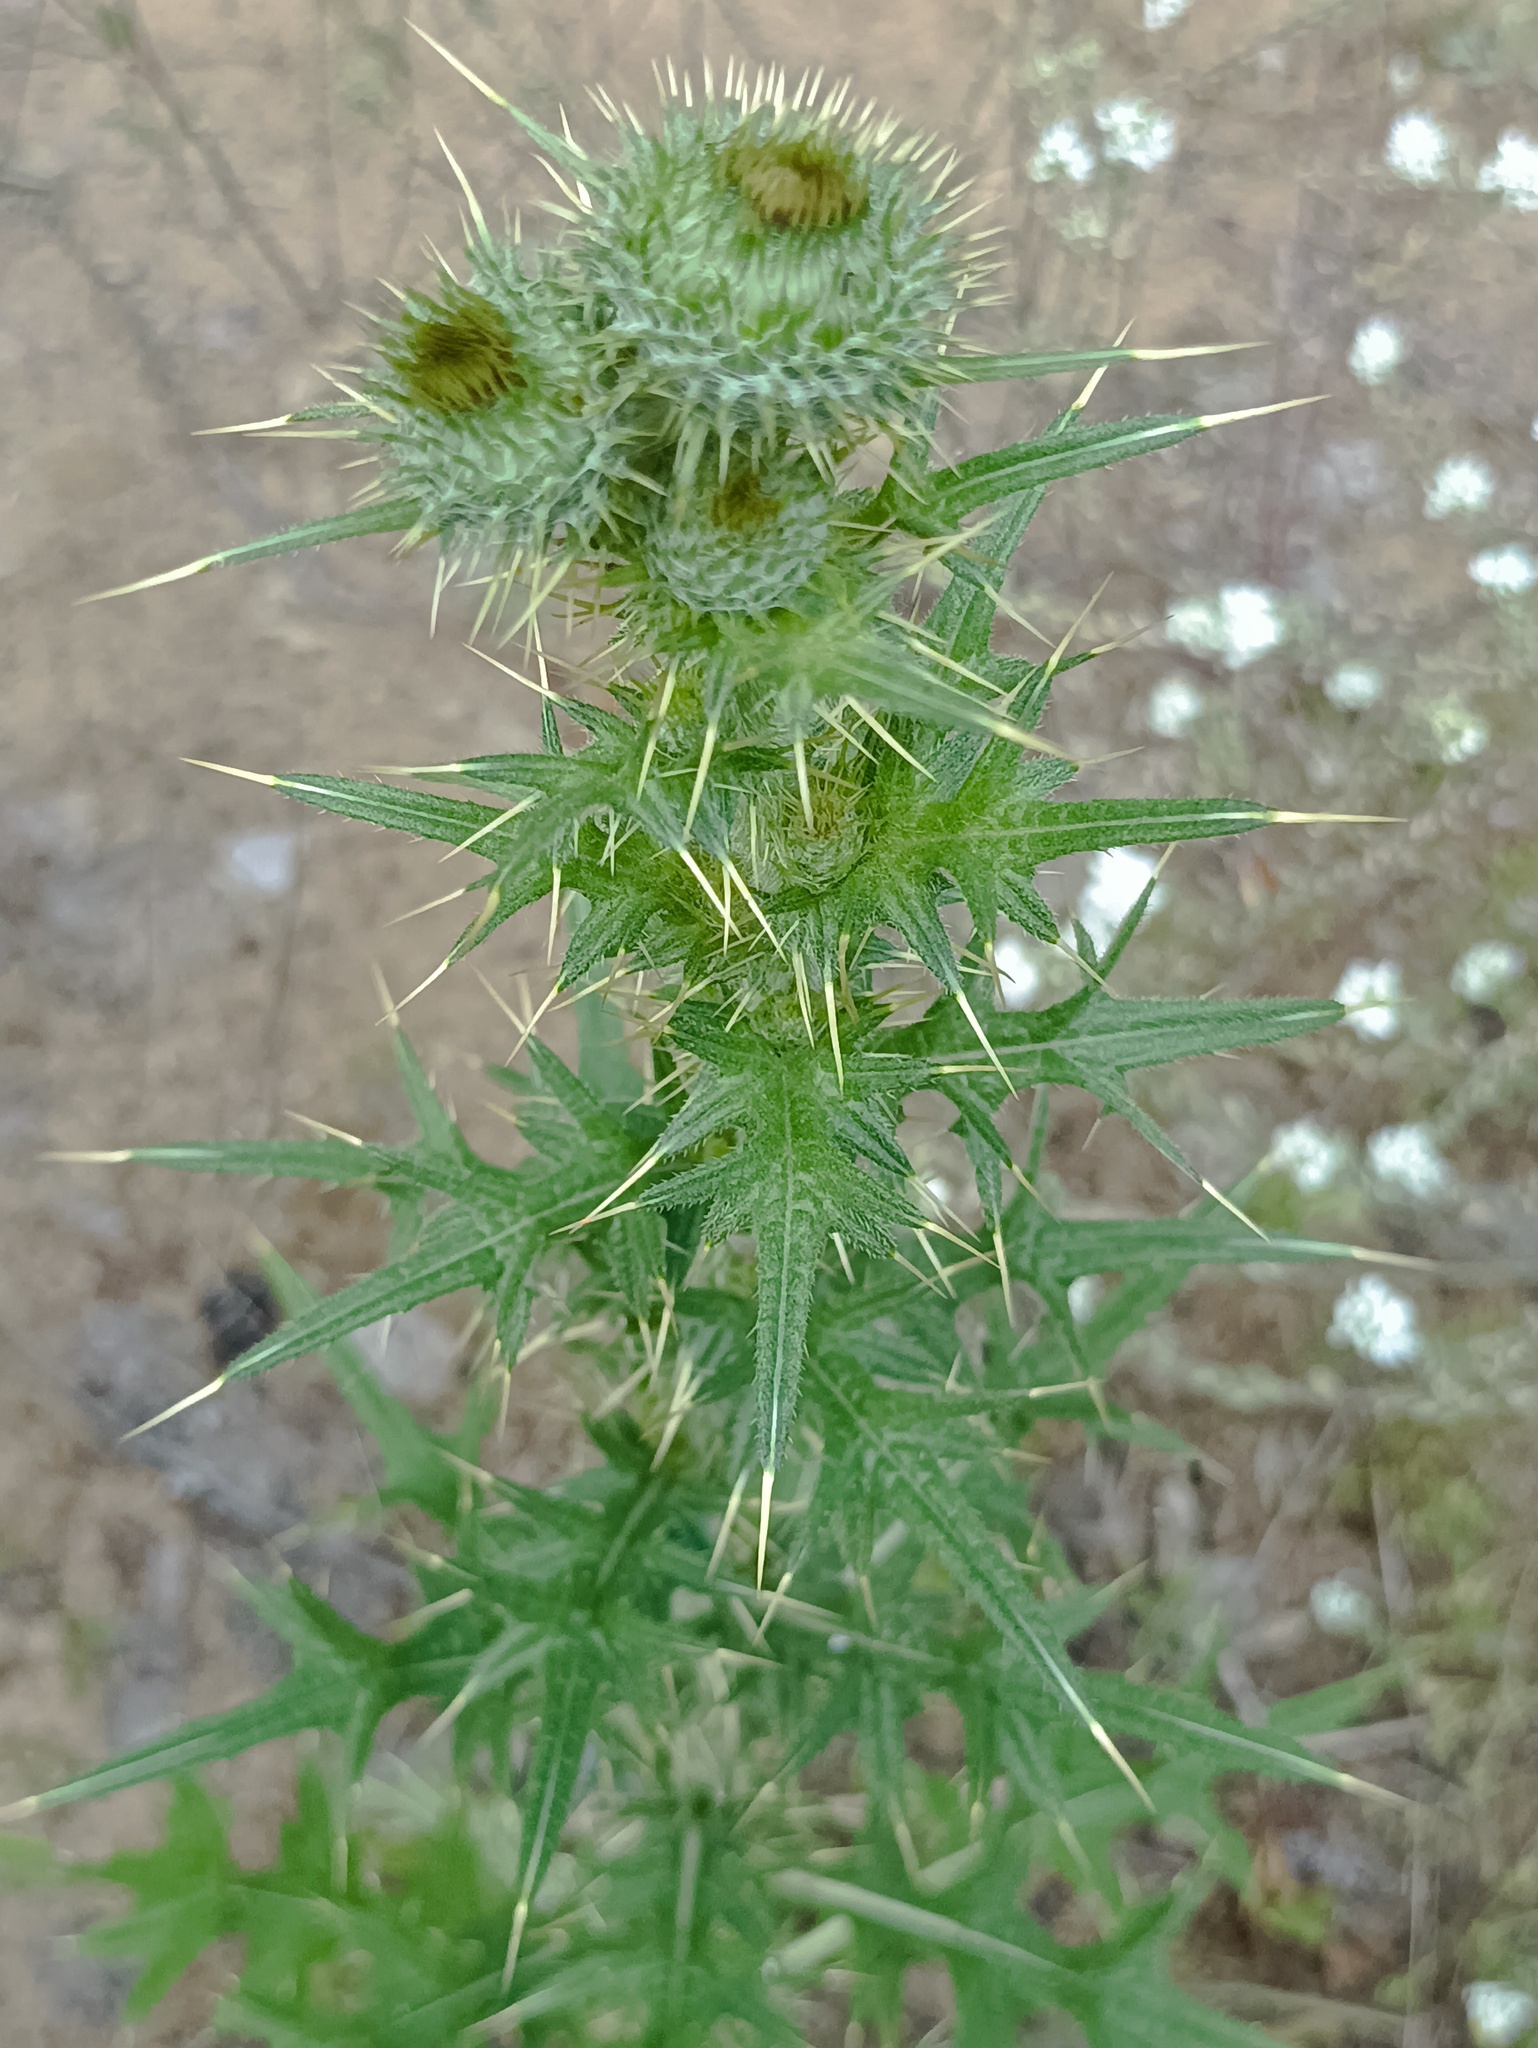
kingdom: Plantae
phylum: Tracheophyta
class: Magnoliopsida
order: Asterales
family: Asteraceae
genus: Cirsium
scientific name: Cirsium vulgare
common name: Bull thistle
